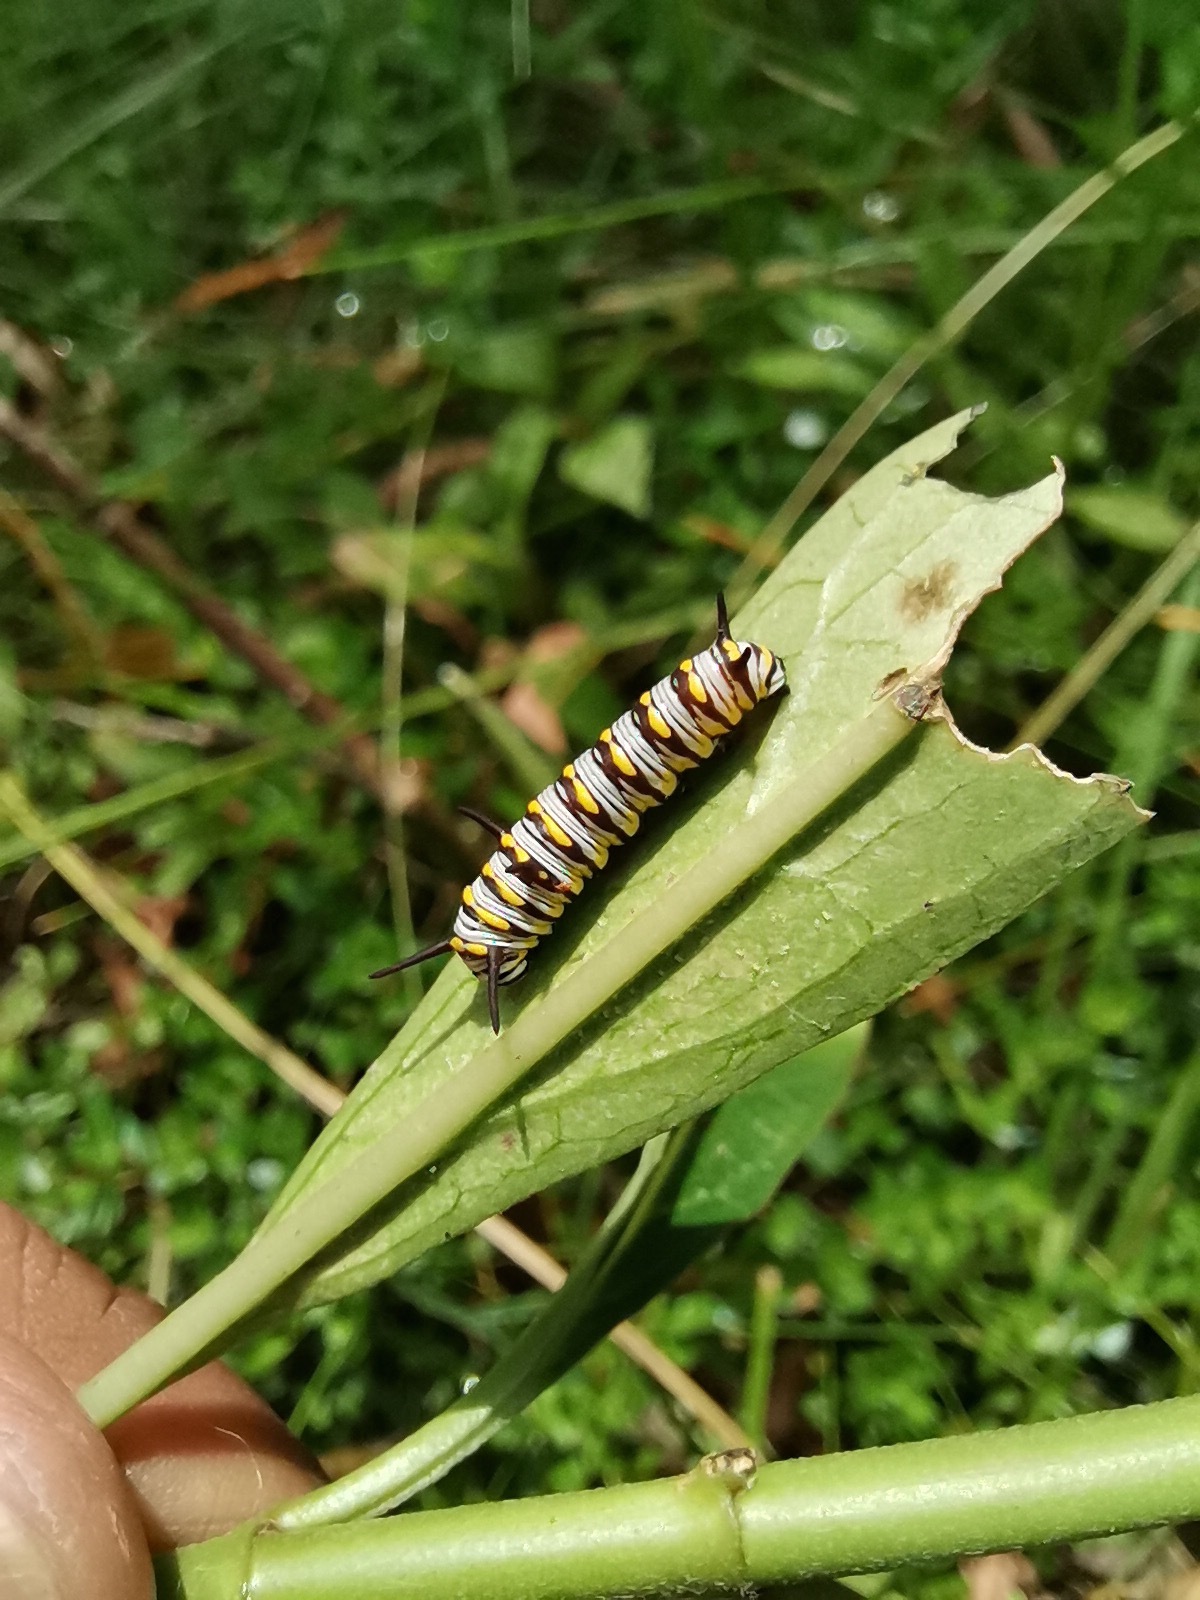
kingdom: Animalia
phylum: Arthropoda
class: Insecta
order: Lepidoptera
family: Nymphalidae
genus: Danaus
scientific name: Danaus gilippus
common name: Queen
